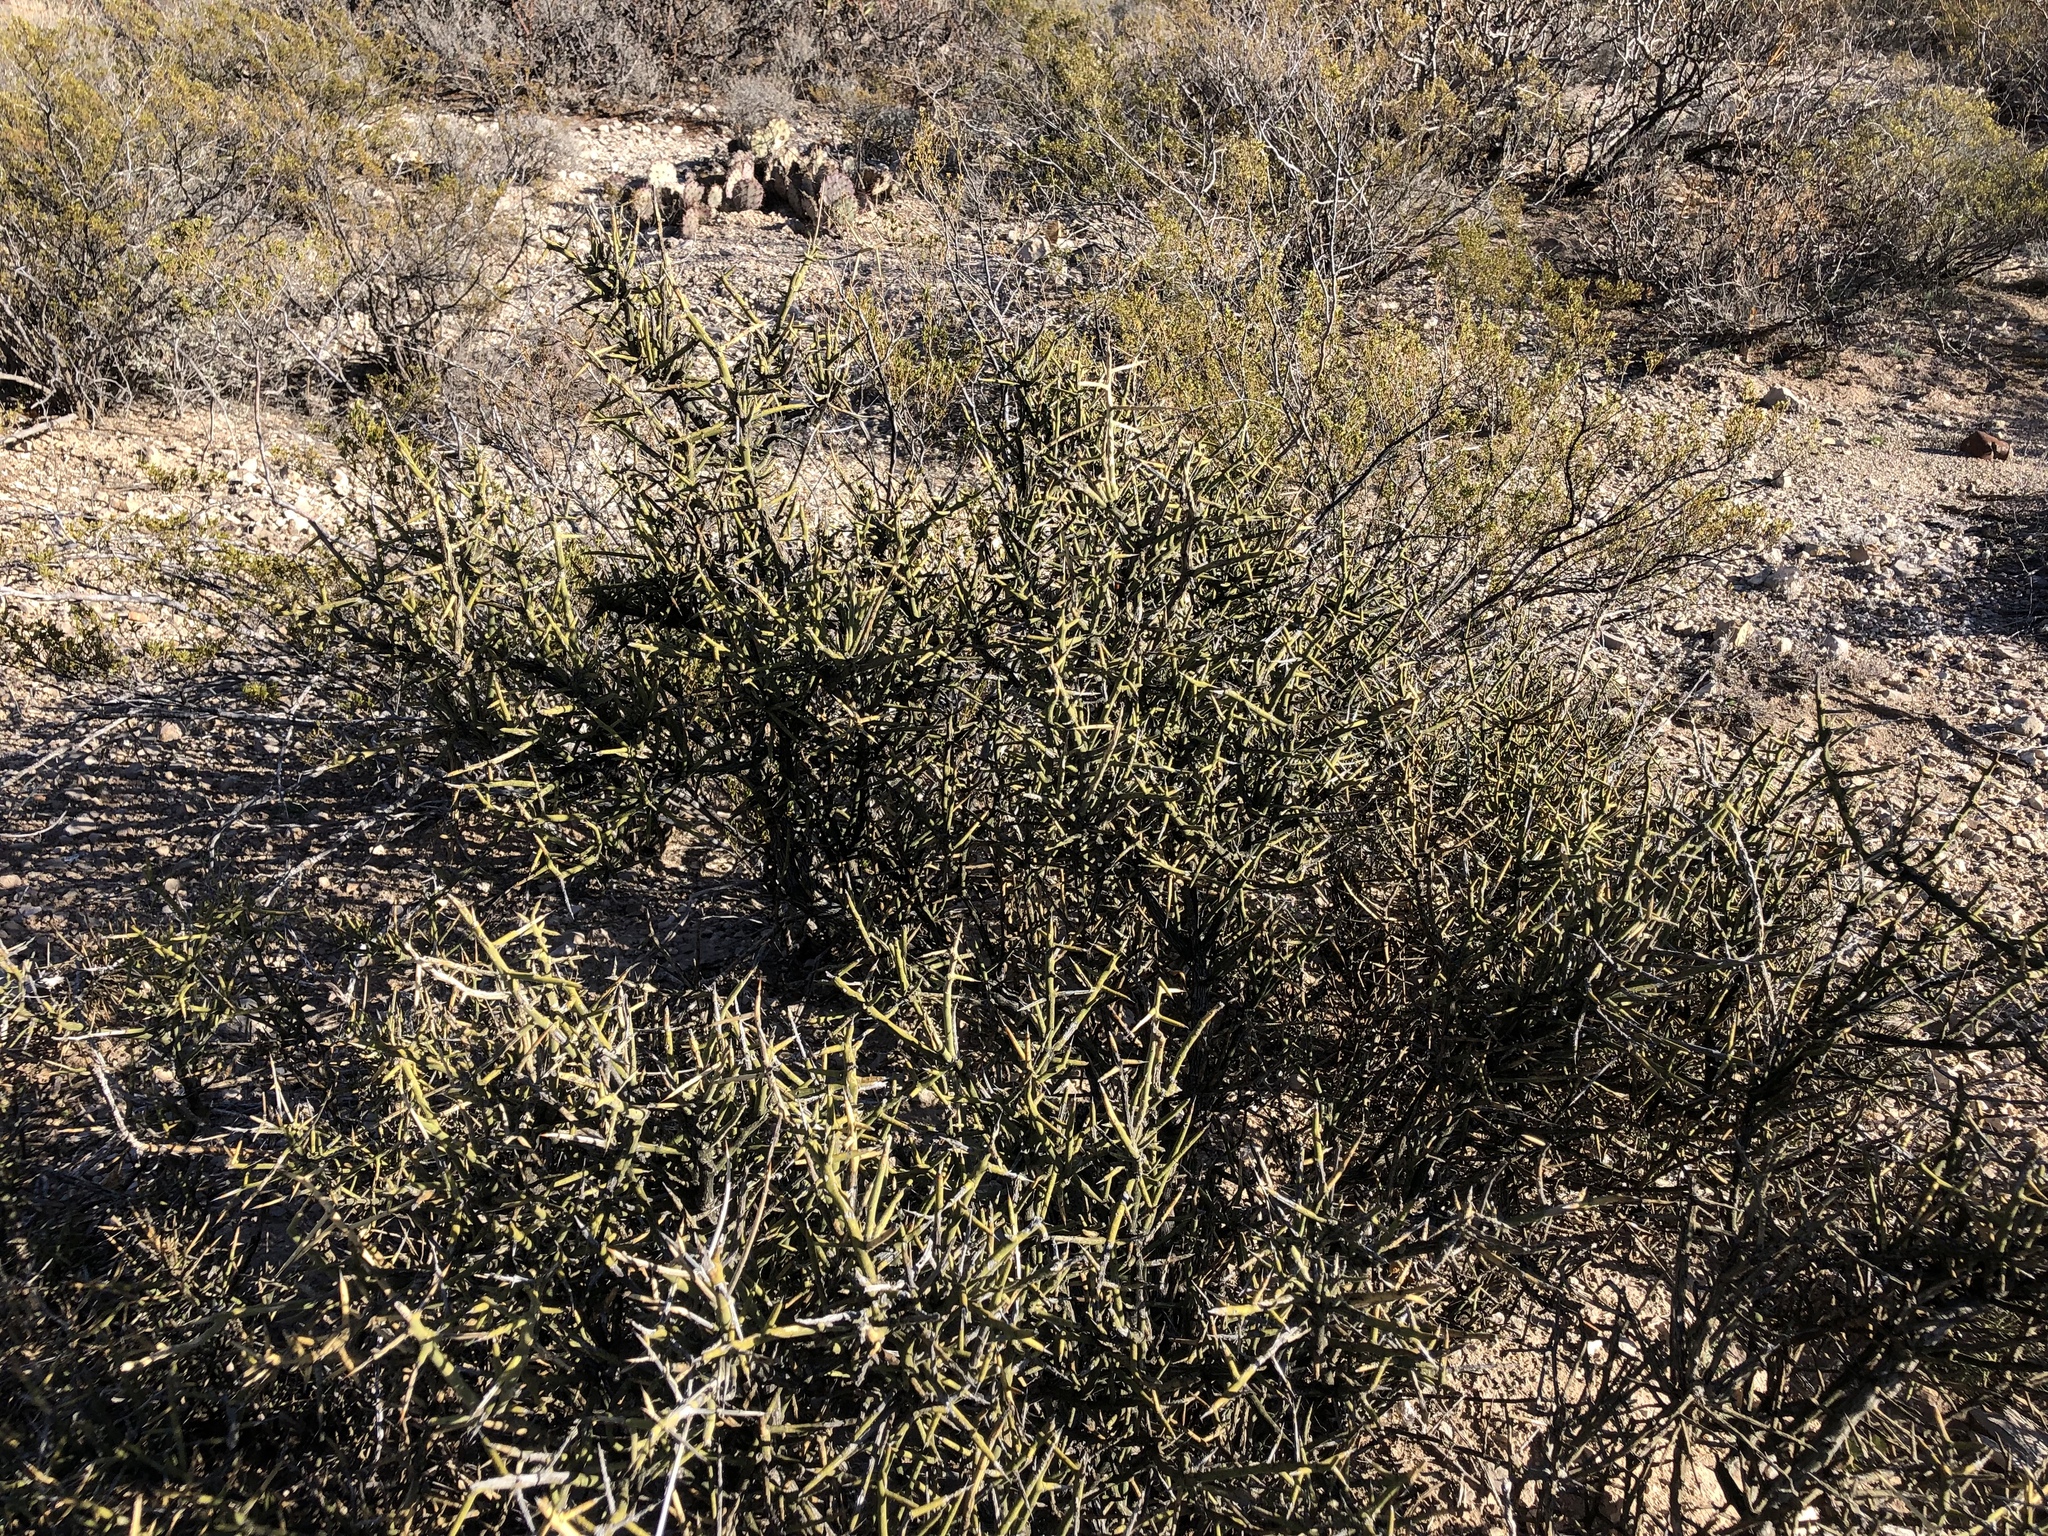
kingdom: Plantae
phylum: Tracheophyta
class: Magnoliopsida
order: Brassicales
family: Koeberliniaceae
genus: Koeberlinia
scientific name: Koeberlinia spinosa
